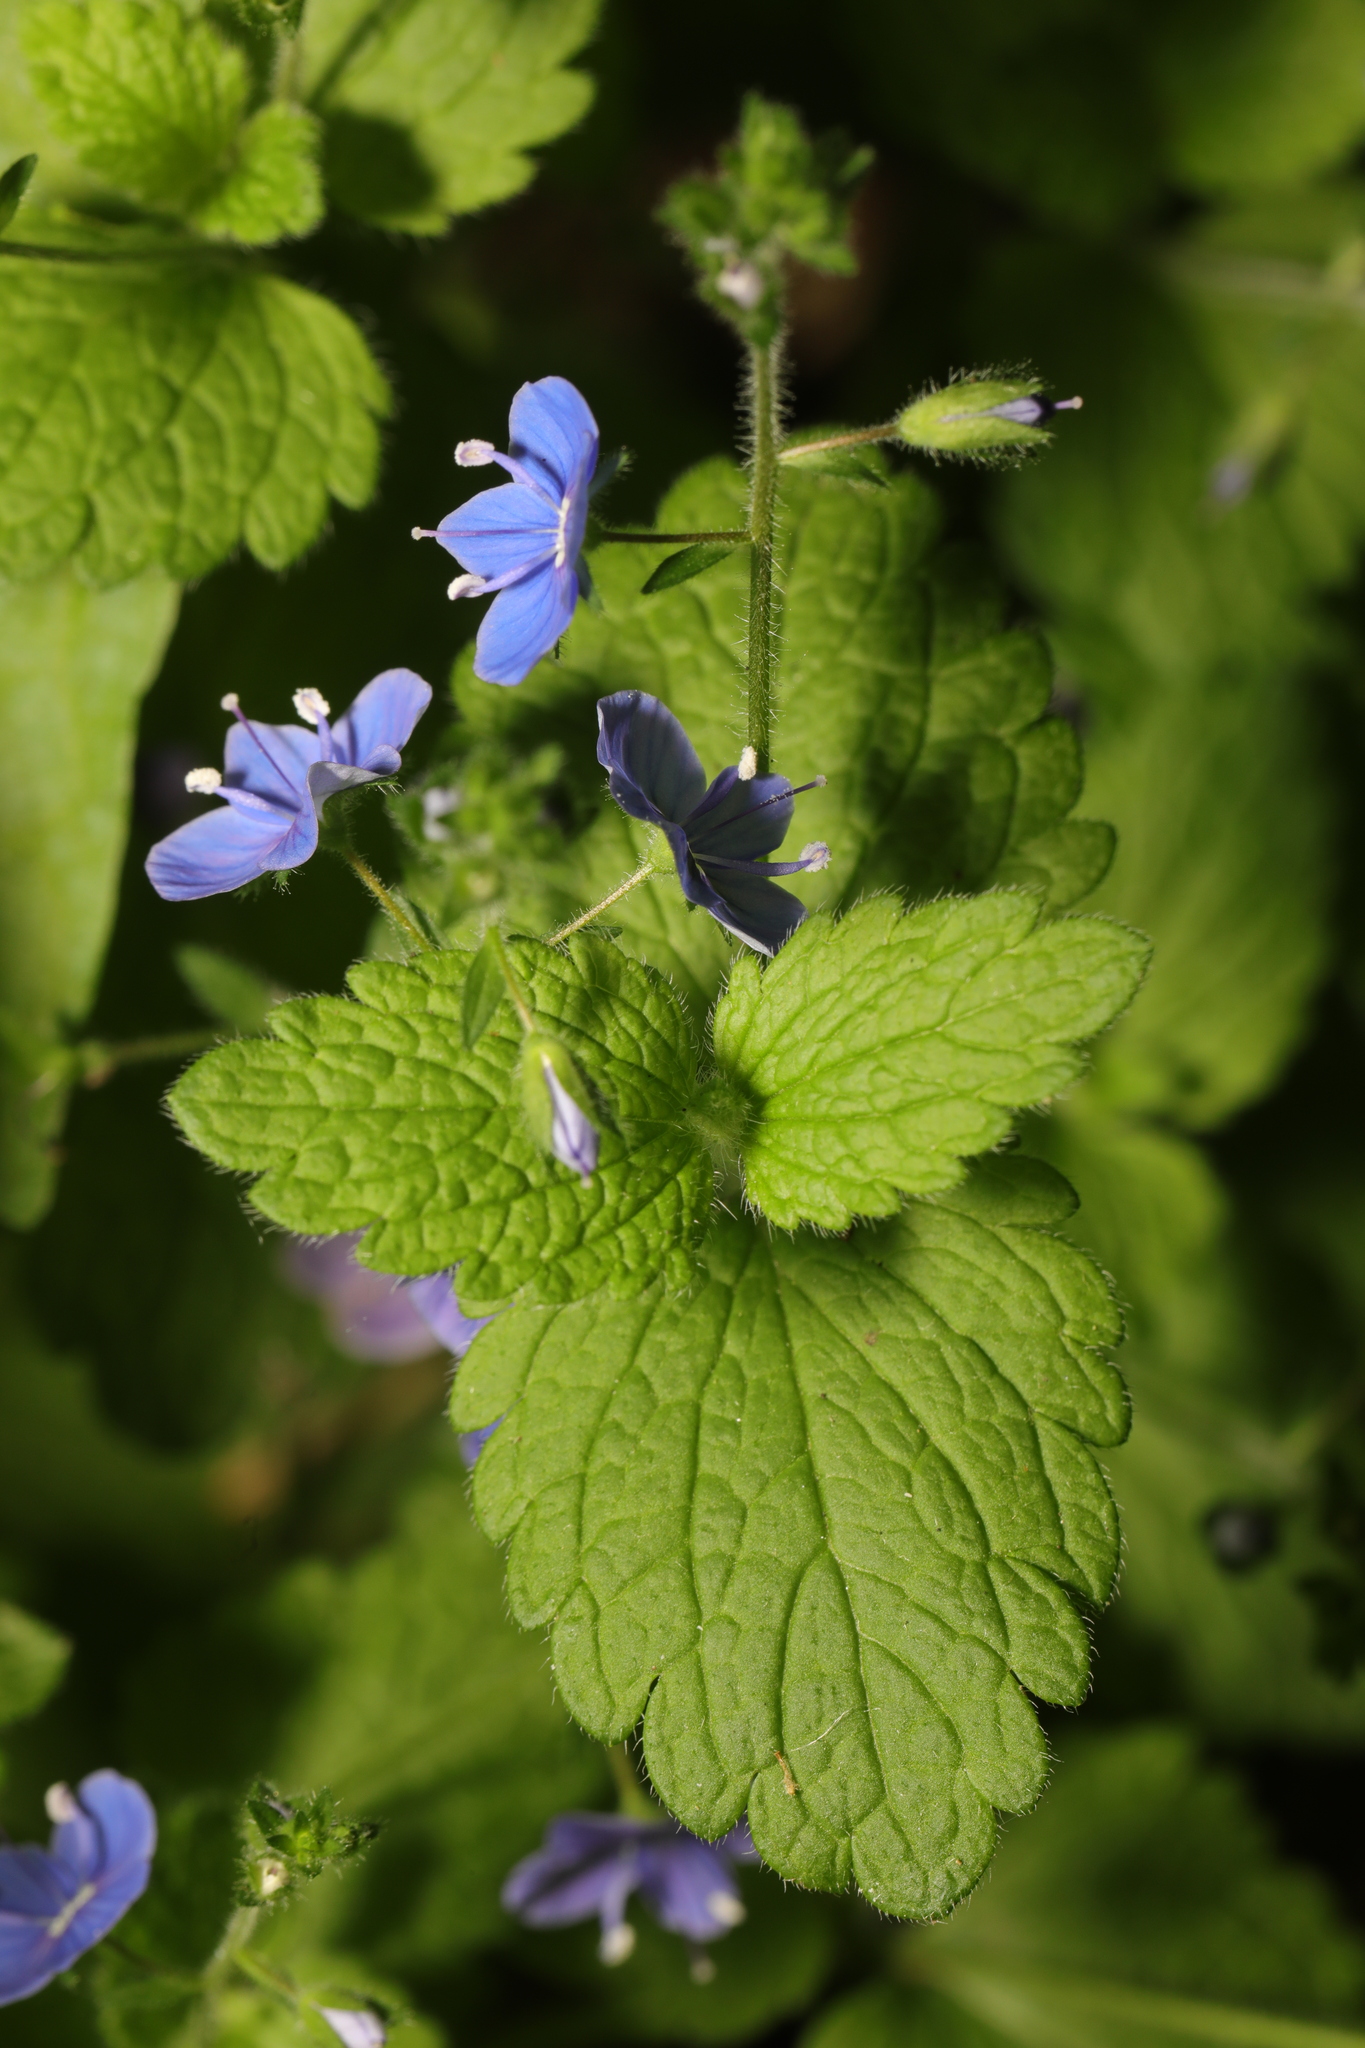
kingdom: Plantae
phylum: Tracheophyta
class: Magnoliopsida
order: Lamiales
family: Plantaginaceae
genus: Veronica
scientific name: Veronica chamaedrys
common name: Germander speedwell
